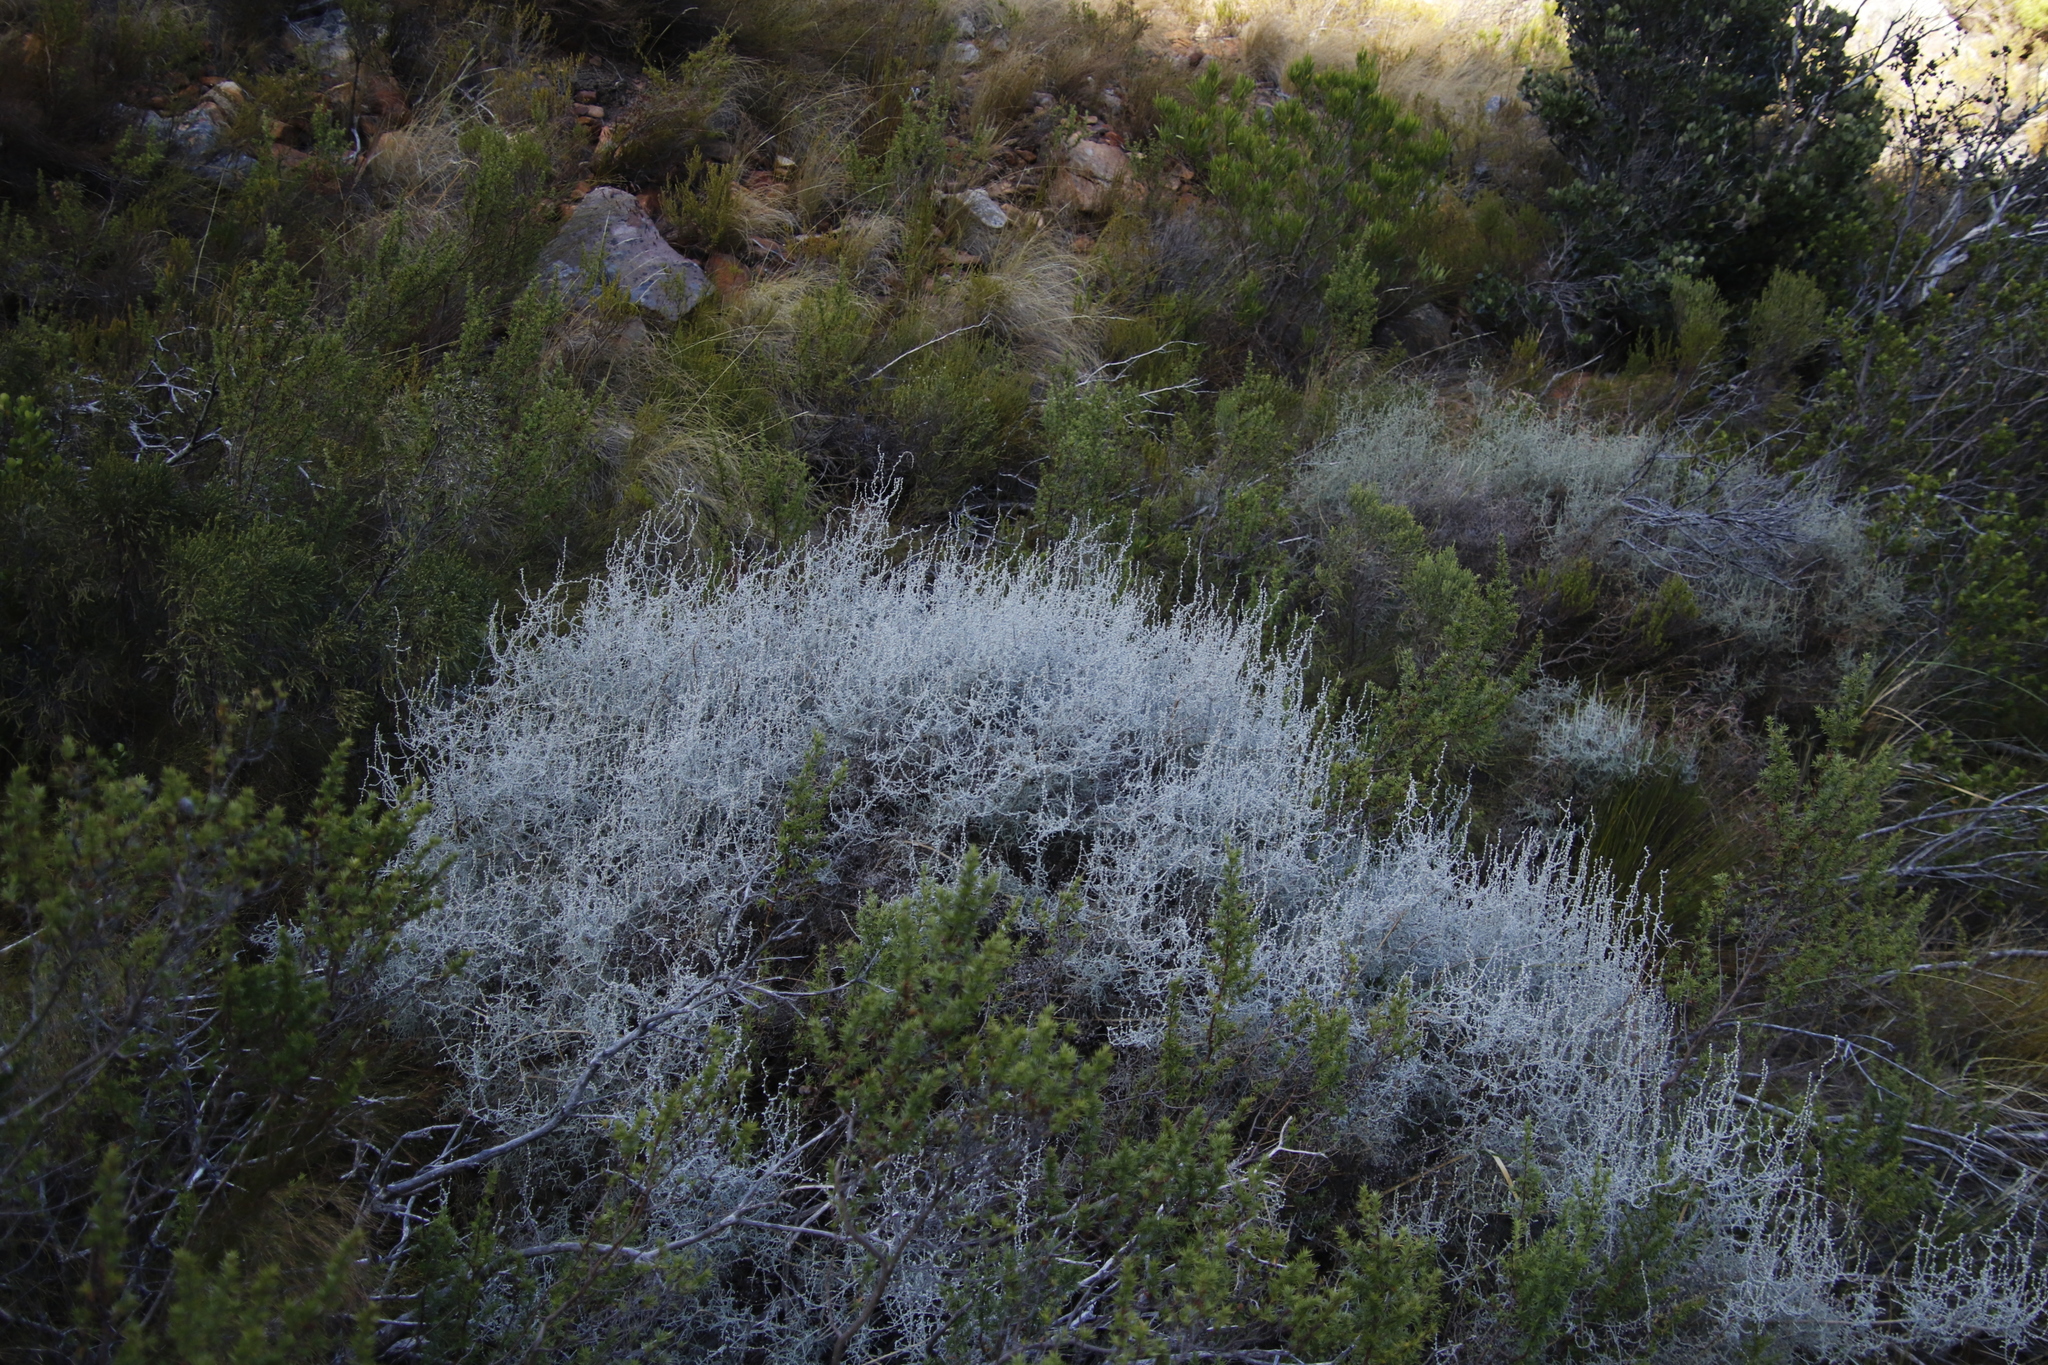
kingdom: Plantae
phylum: Tracheophyta
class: Magnoliopsida
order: Asterales
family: Asteraceae
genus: Seriphium
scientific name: Seriphium plumosum
